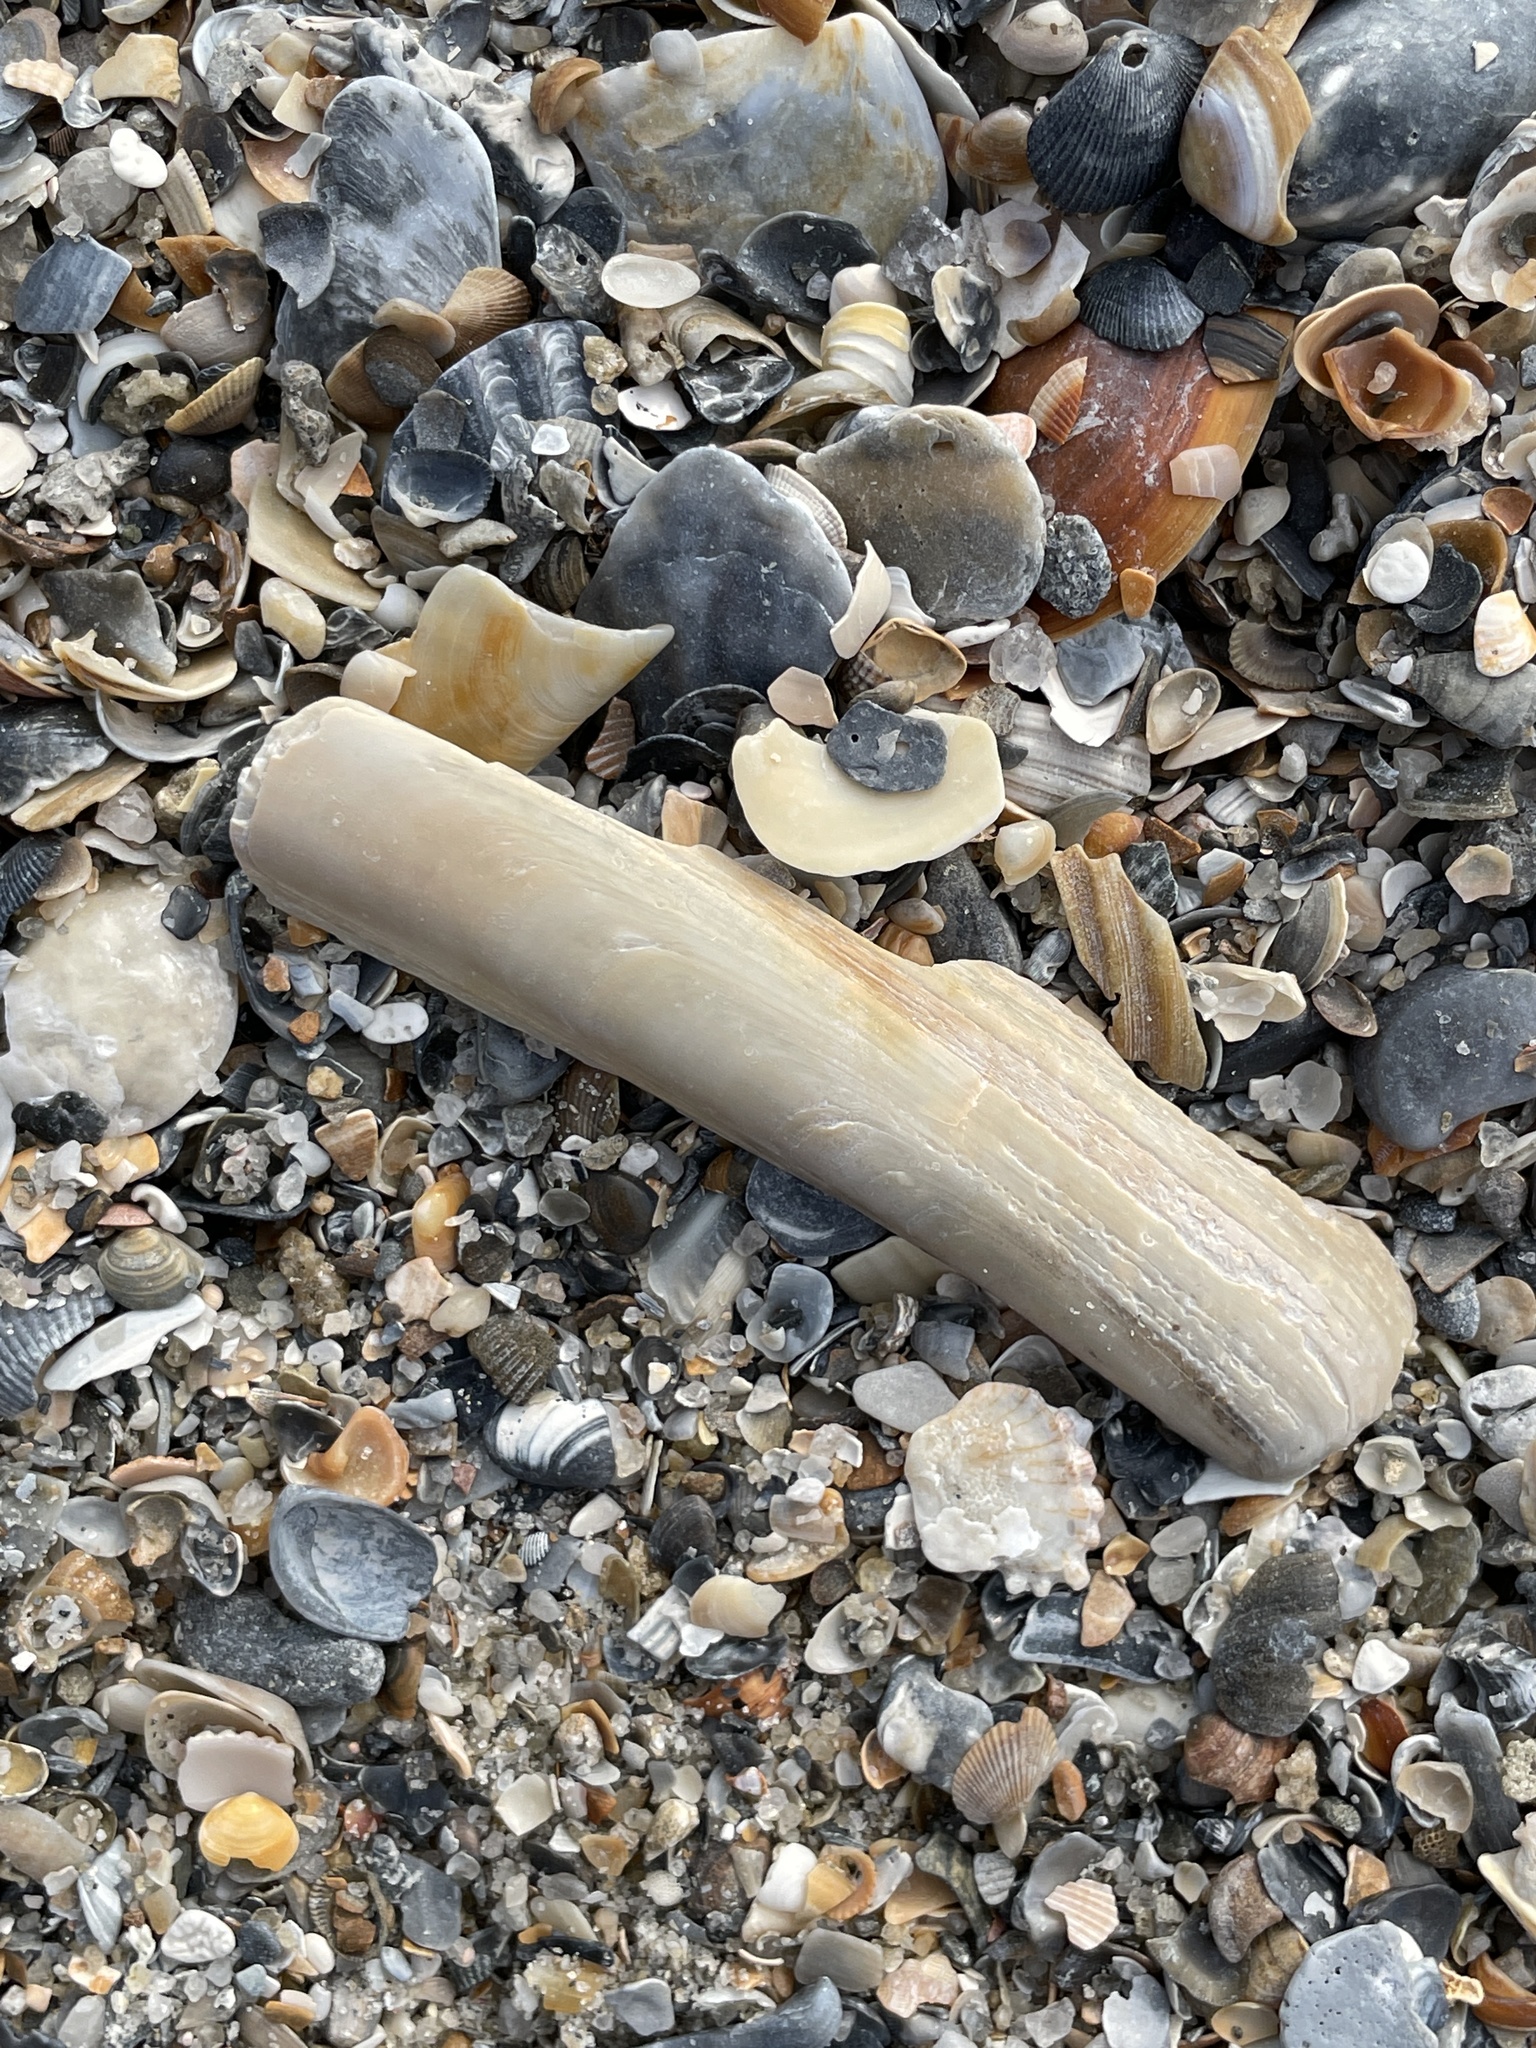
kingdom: Animalia
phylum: Mollusca
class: Bivalvia
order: Adapedonta
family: Pharidae
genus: Ensis
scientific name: Ensis leei
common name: American jack knife clam
